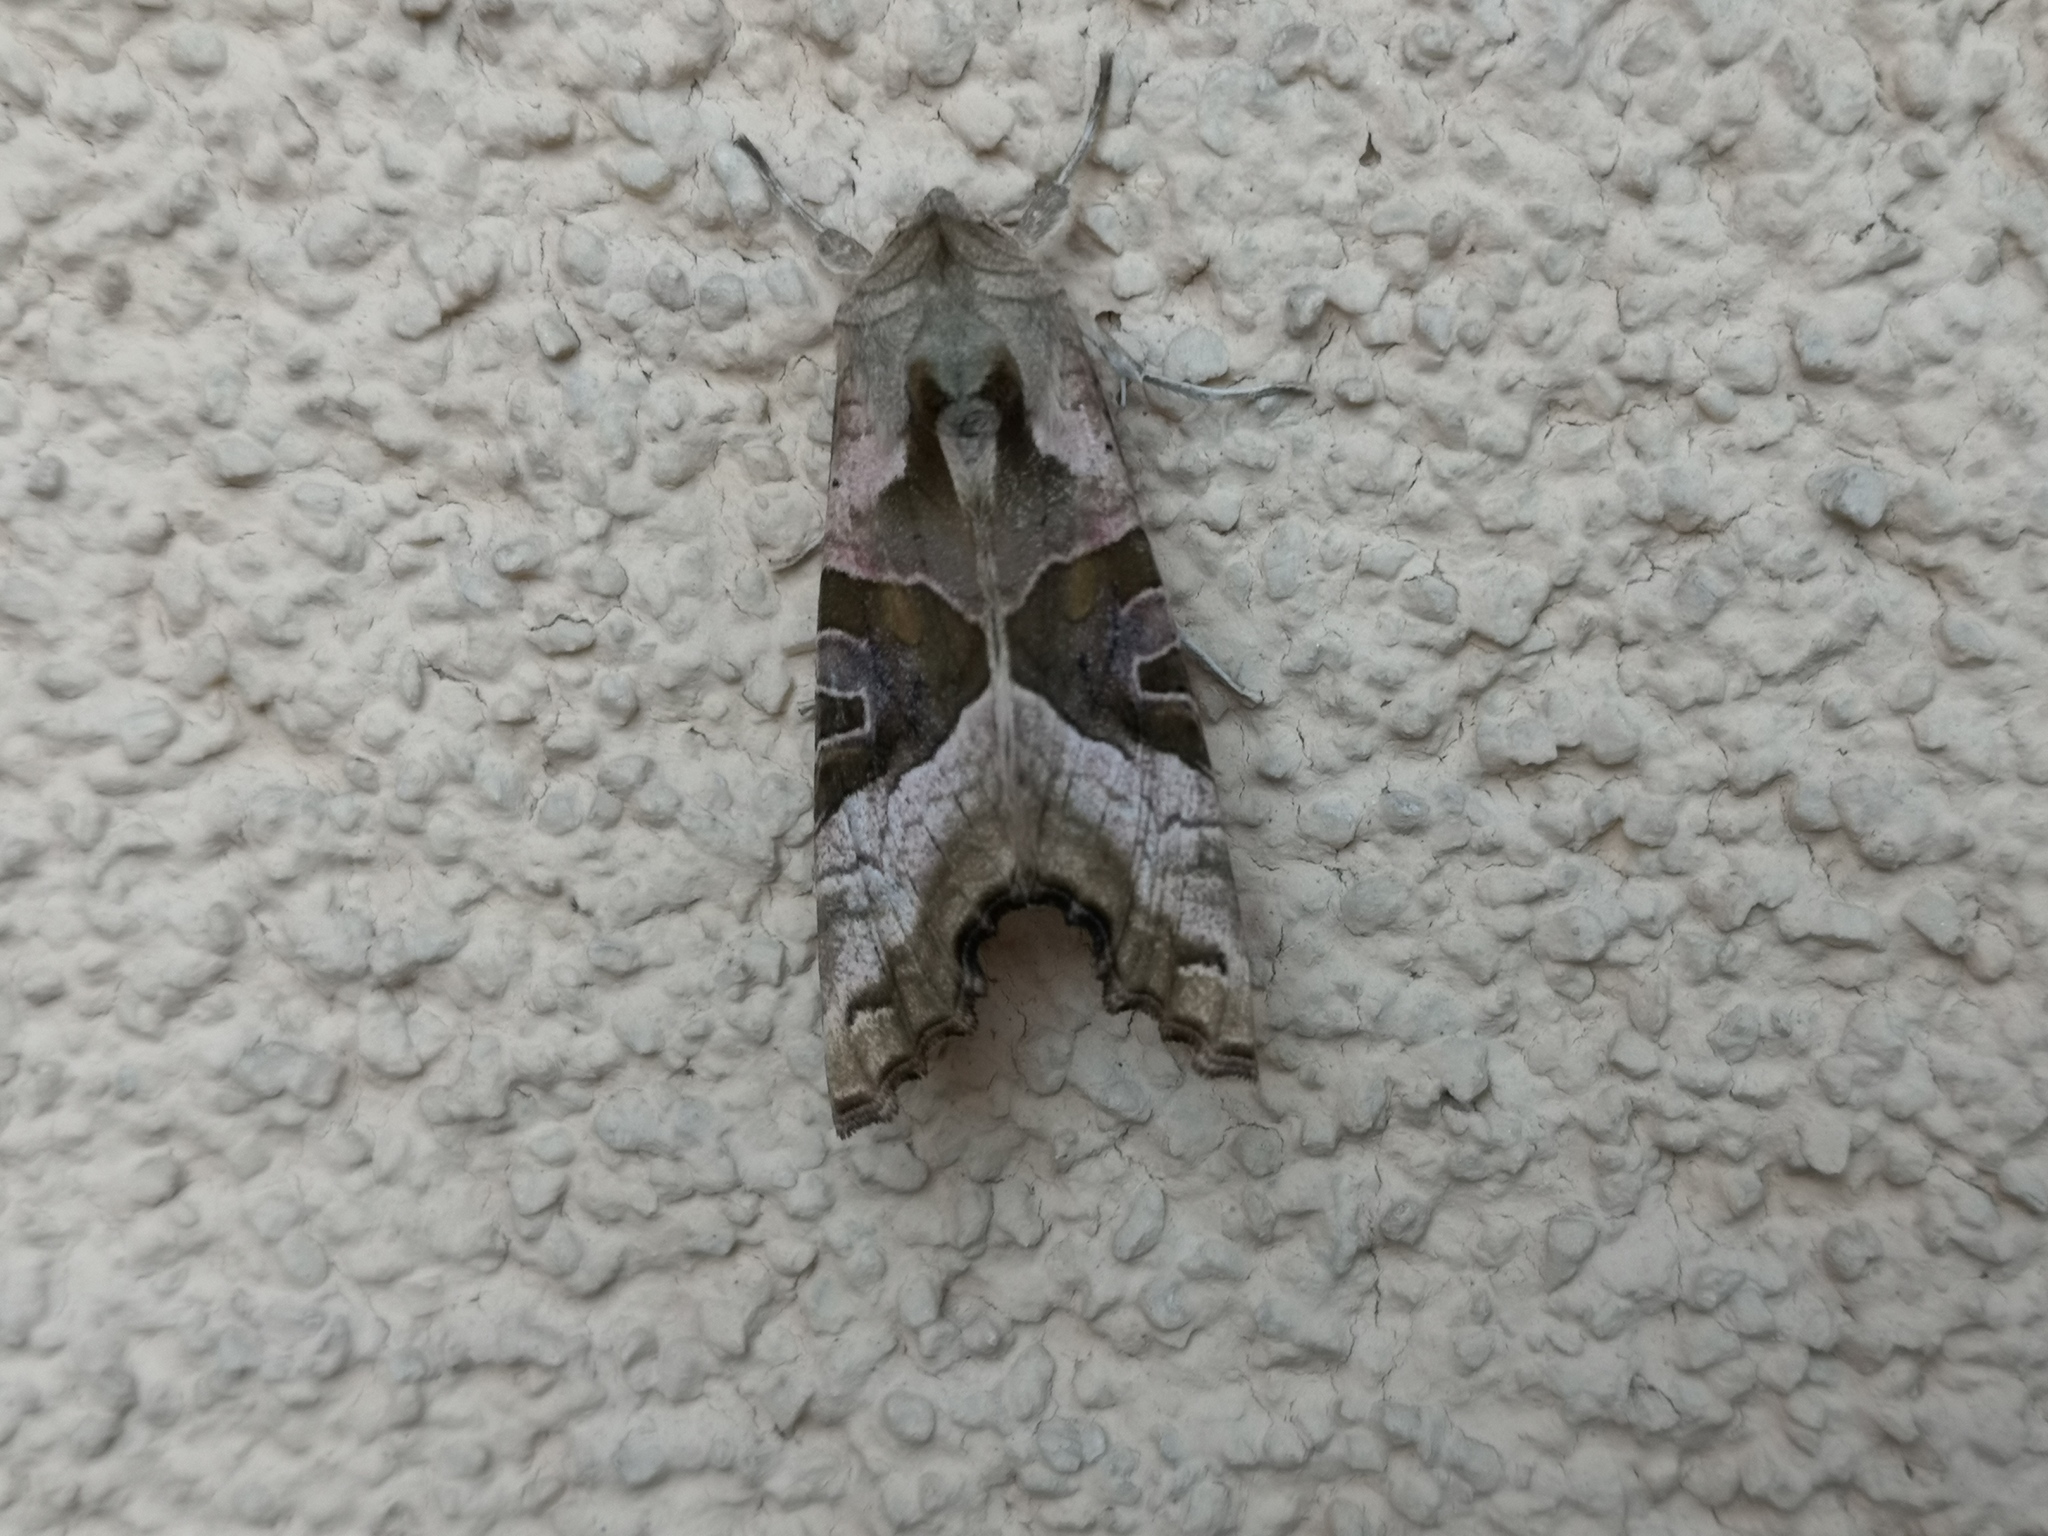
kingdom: Animalia
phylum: Arthropoda
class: Insecta
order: Lepidoptera
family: Noctuidae
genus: Phlogophora
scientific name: Phlogophora meticulosa
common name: Angle shades
